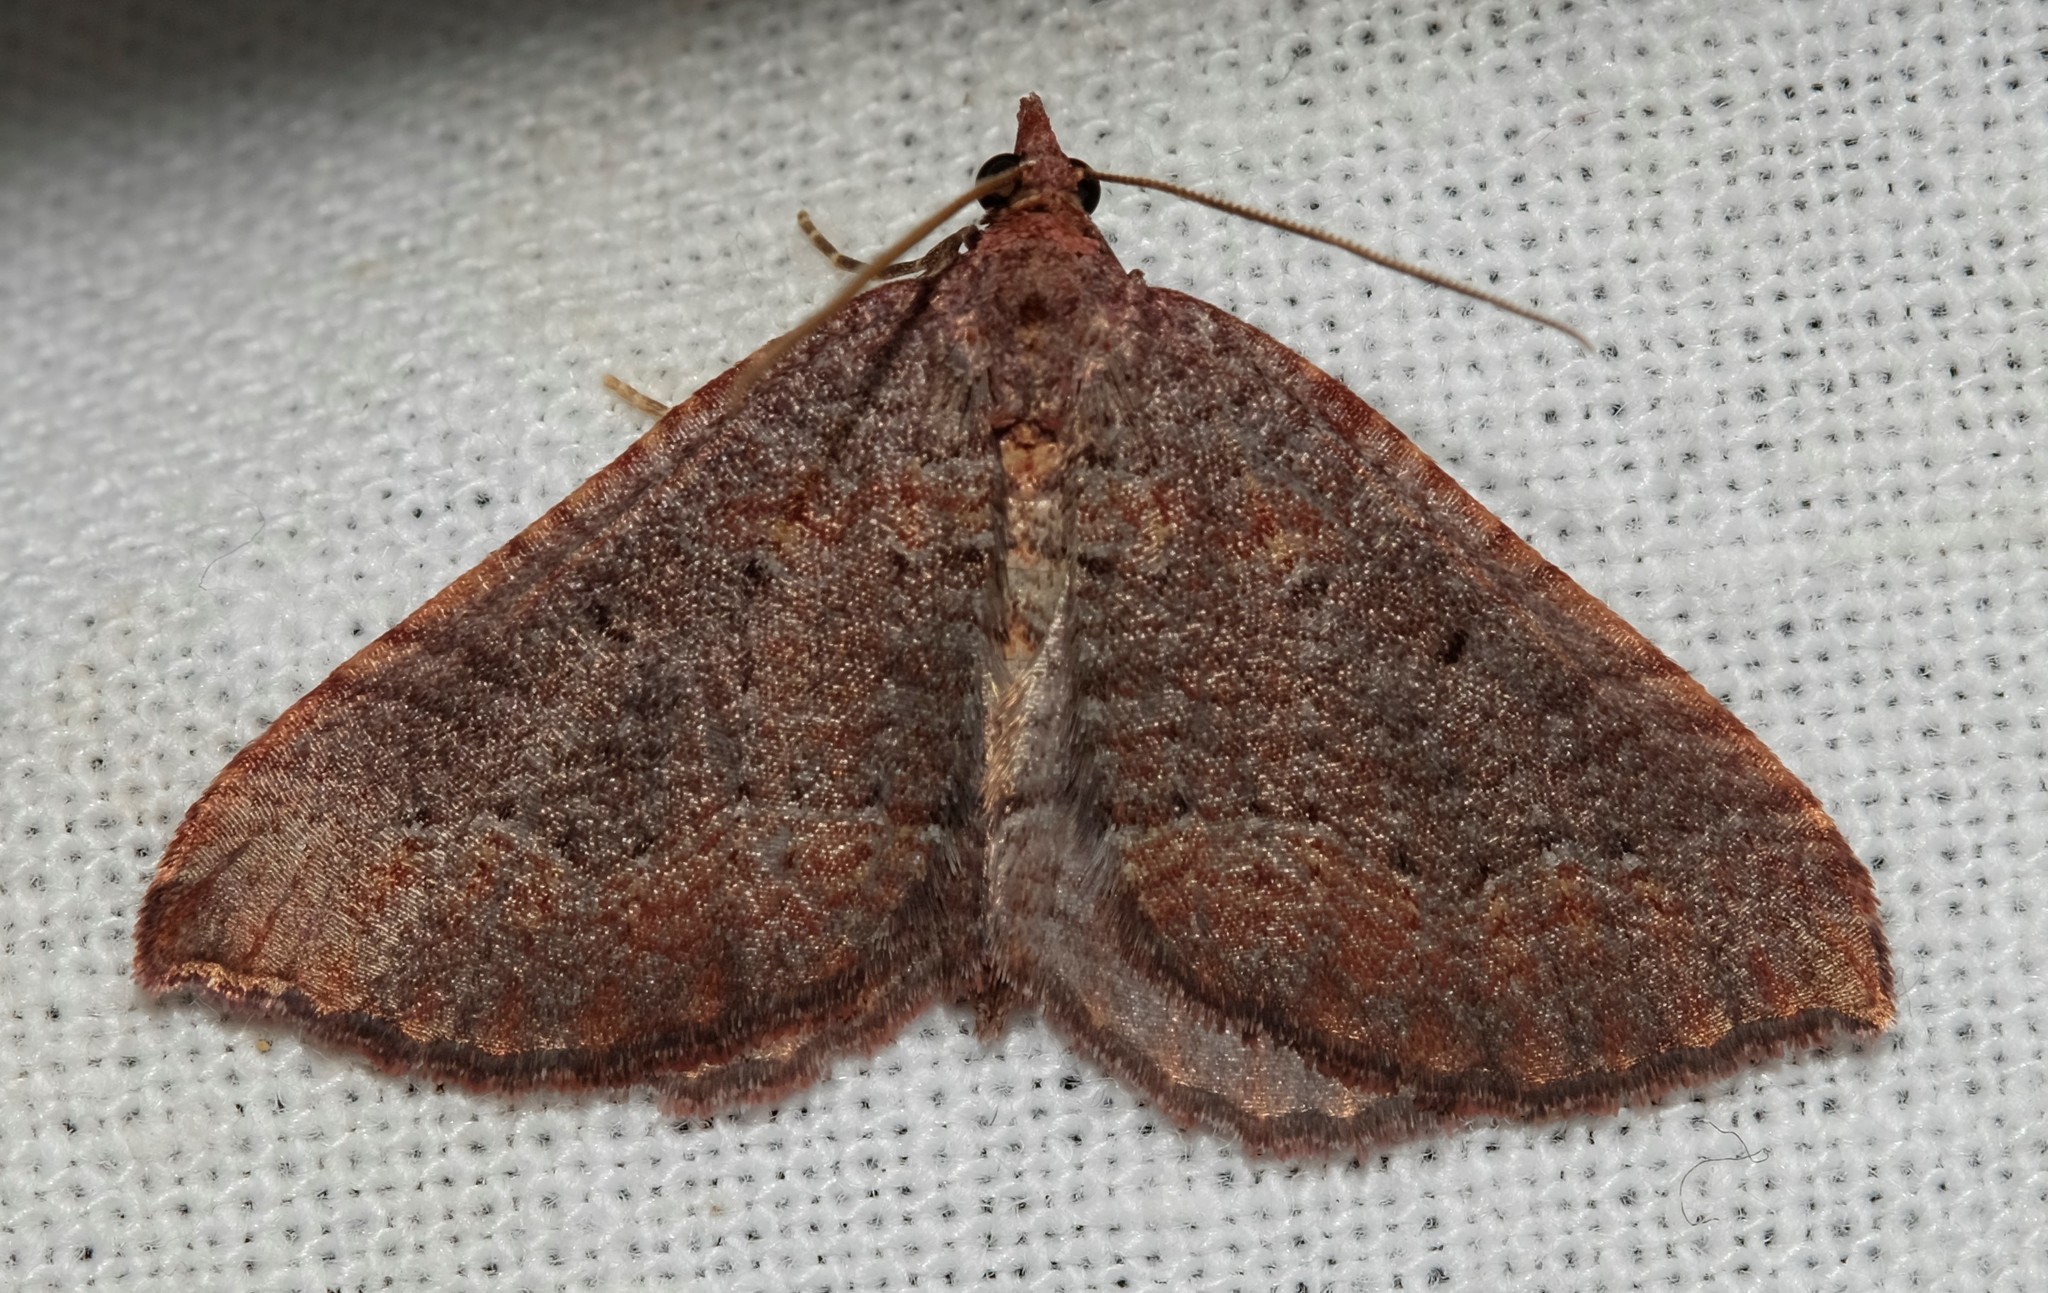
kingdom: Animalia
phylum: Arthropoda
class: Insecta
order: Lepidoptera
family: Geometridae
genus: Chrysolarentia
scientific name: Chrysolarentia trygodes
